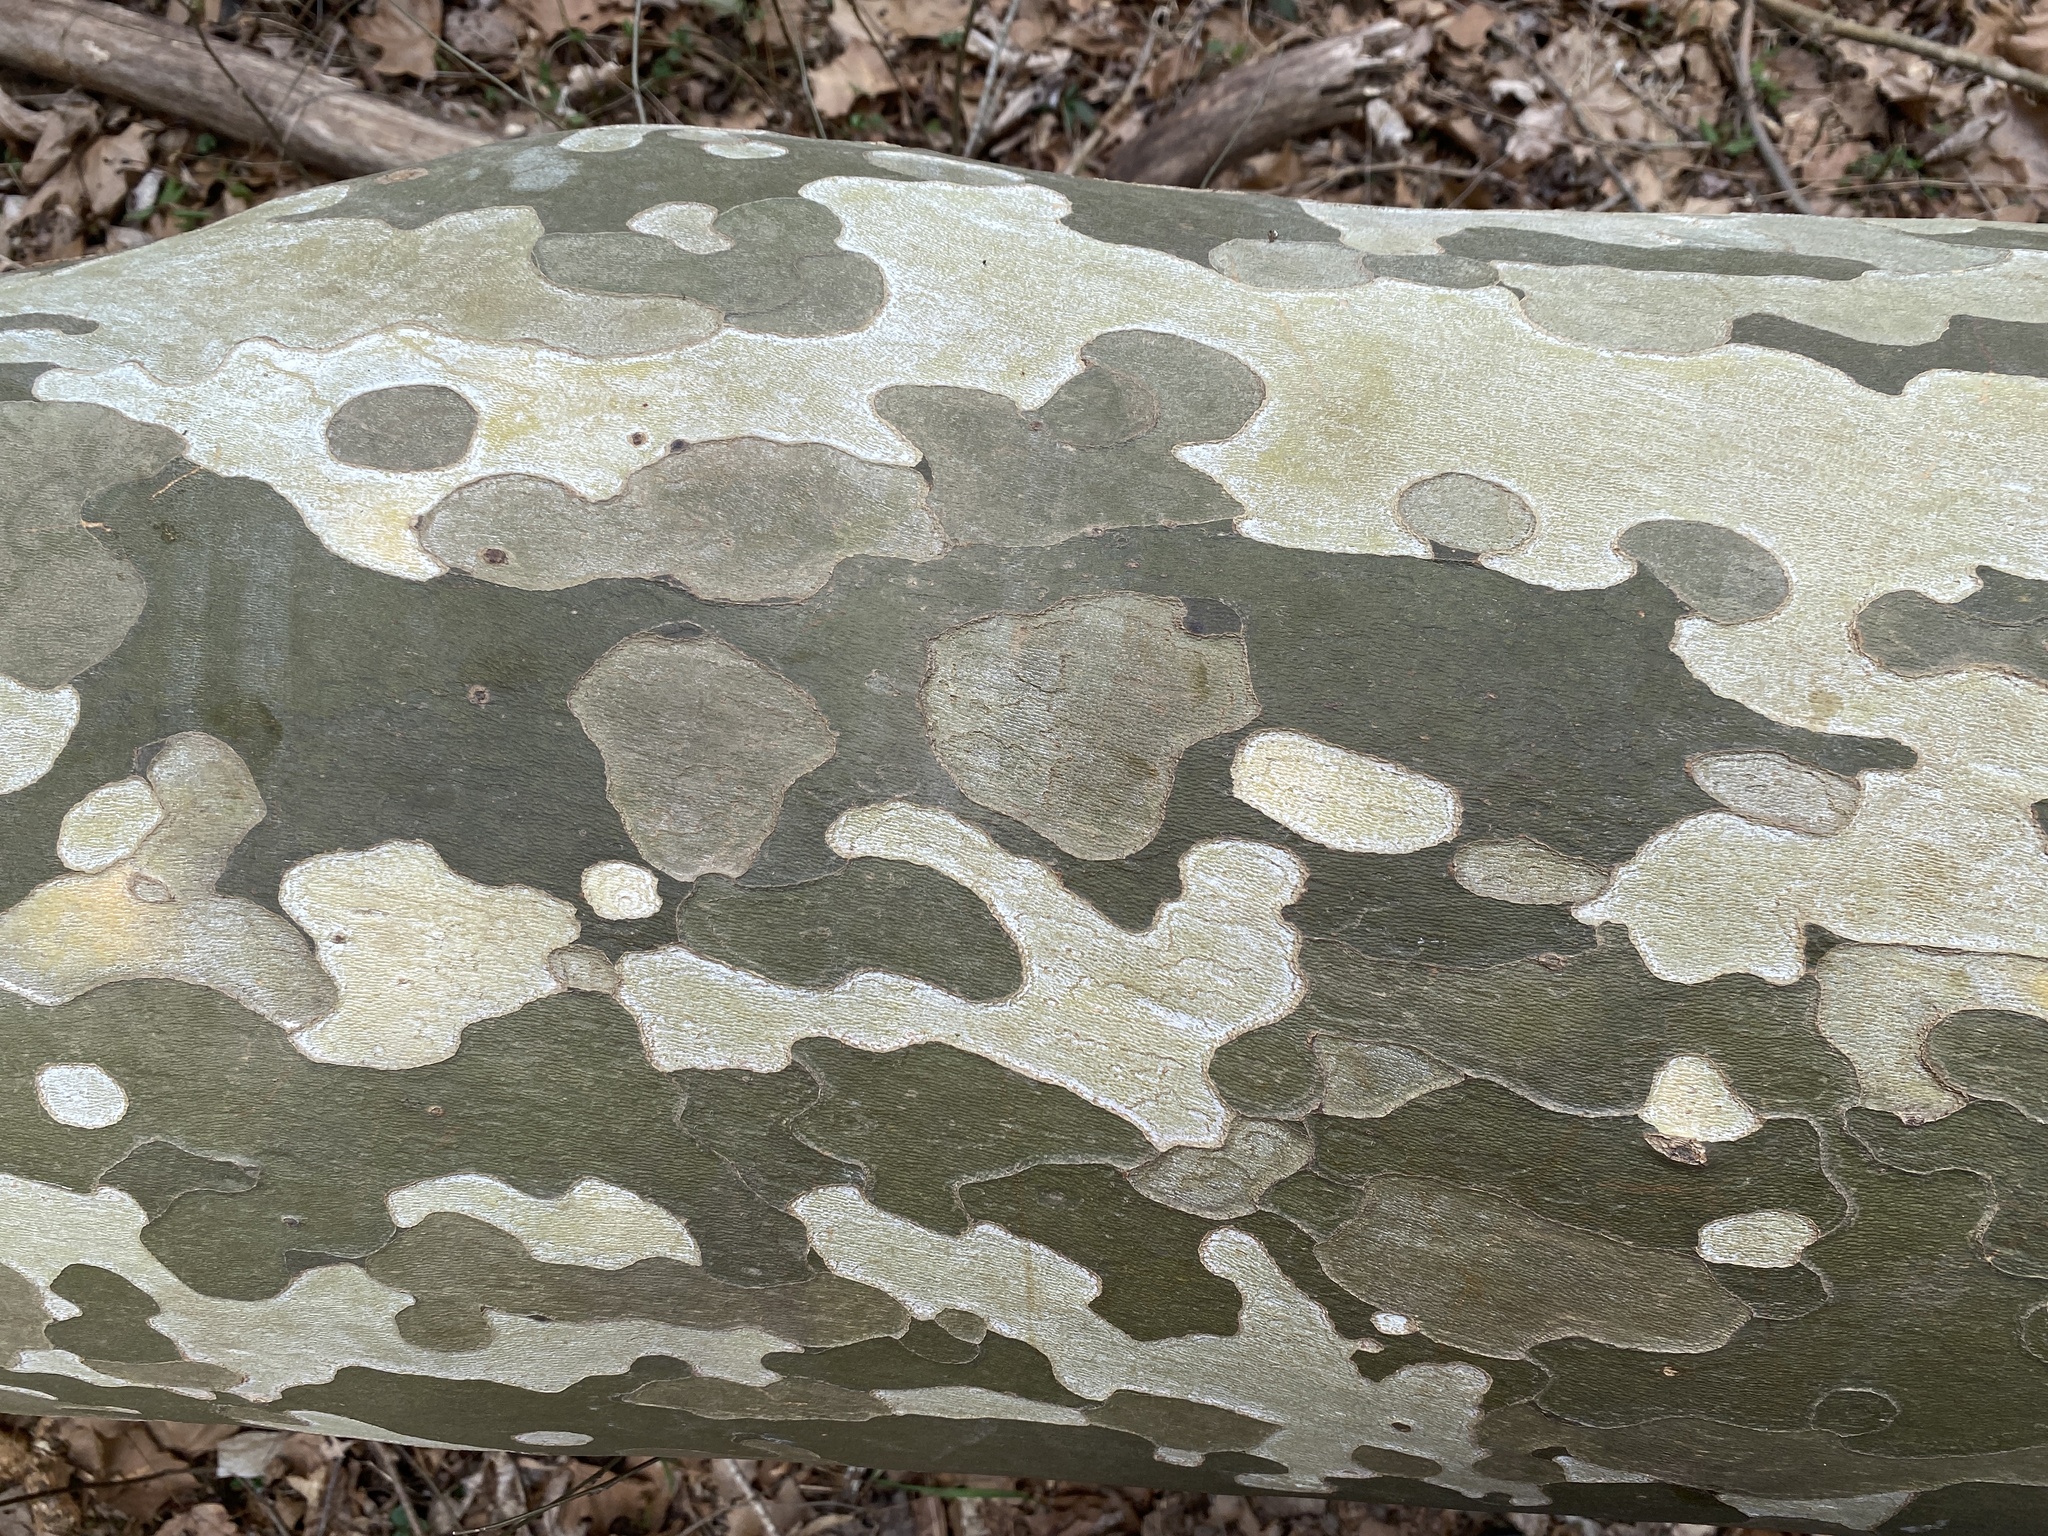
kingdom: Plantae
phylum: Tracheophyta
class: Magnoliopsida
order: Proteales
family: Platanaceae
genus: Platanus
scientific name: Platanus occidentalis
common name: American sycamore
